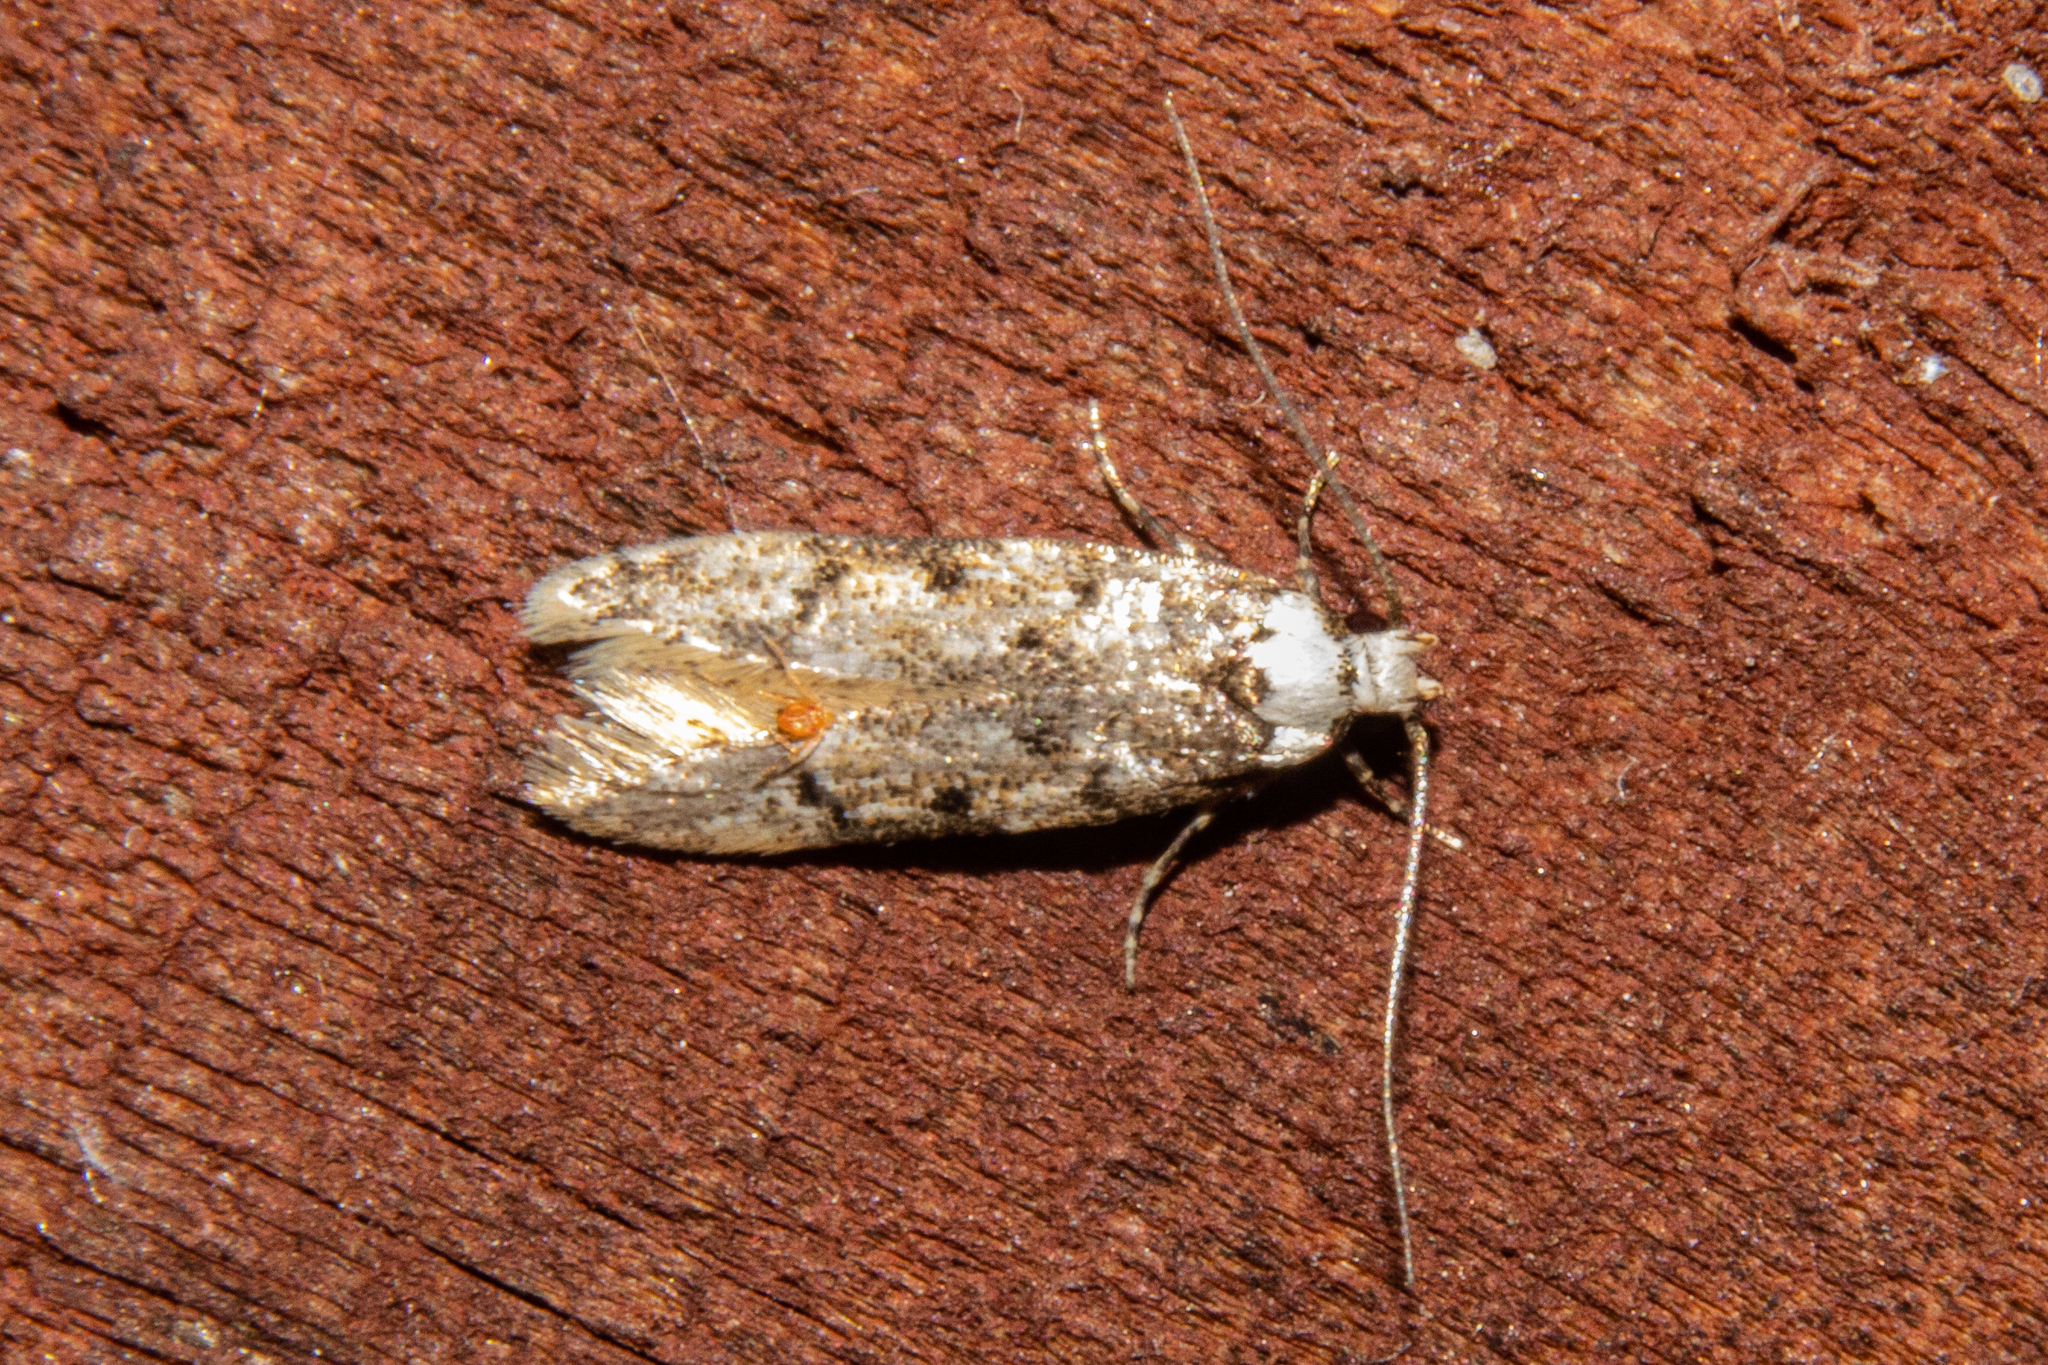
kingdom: Animalia
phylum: Arthropoda
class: Insecta
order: Lepidoptera
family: Oecophoridae
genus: Endrosis
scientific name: Endrosis sarcitrella
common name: White-shouldered house moth
